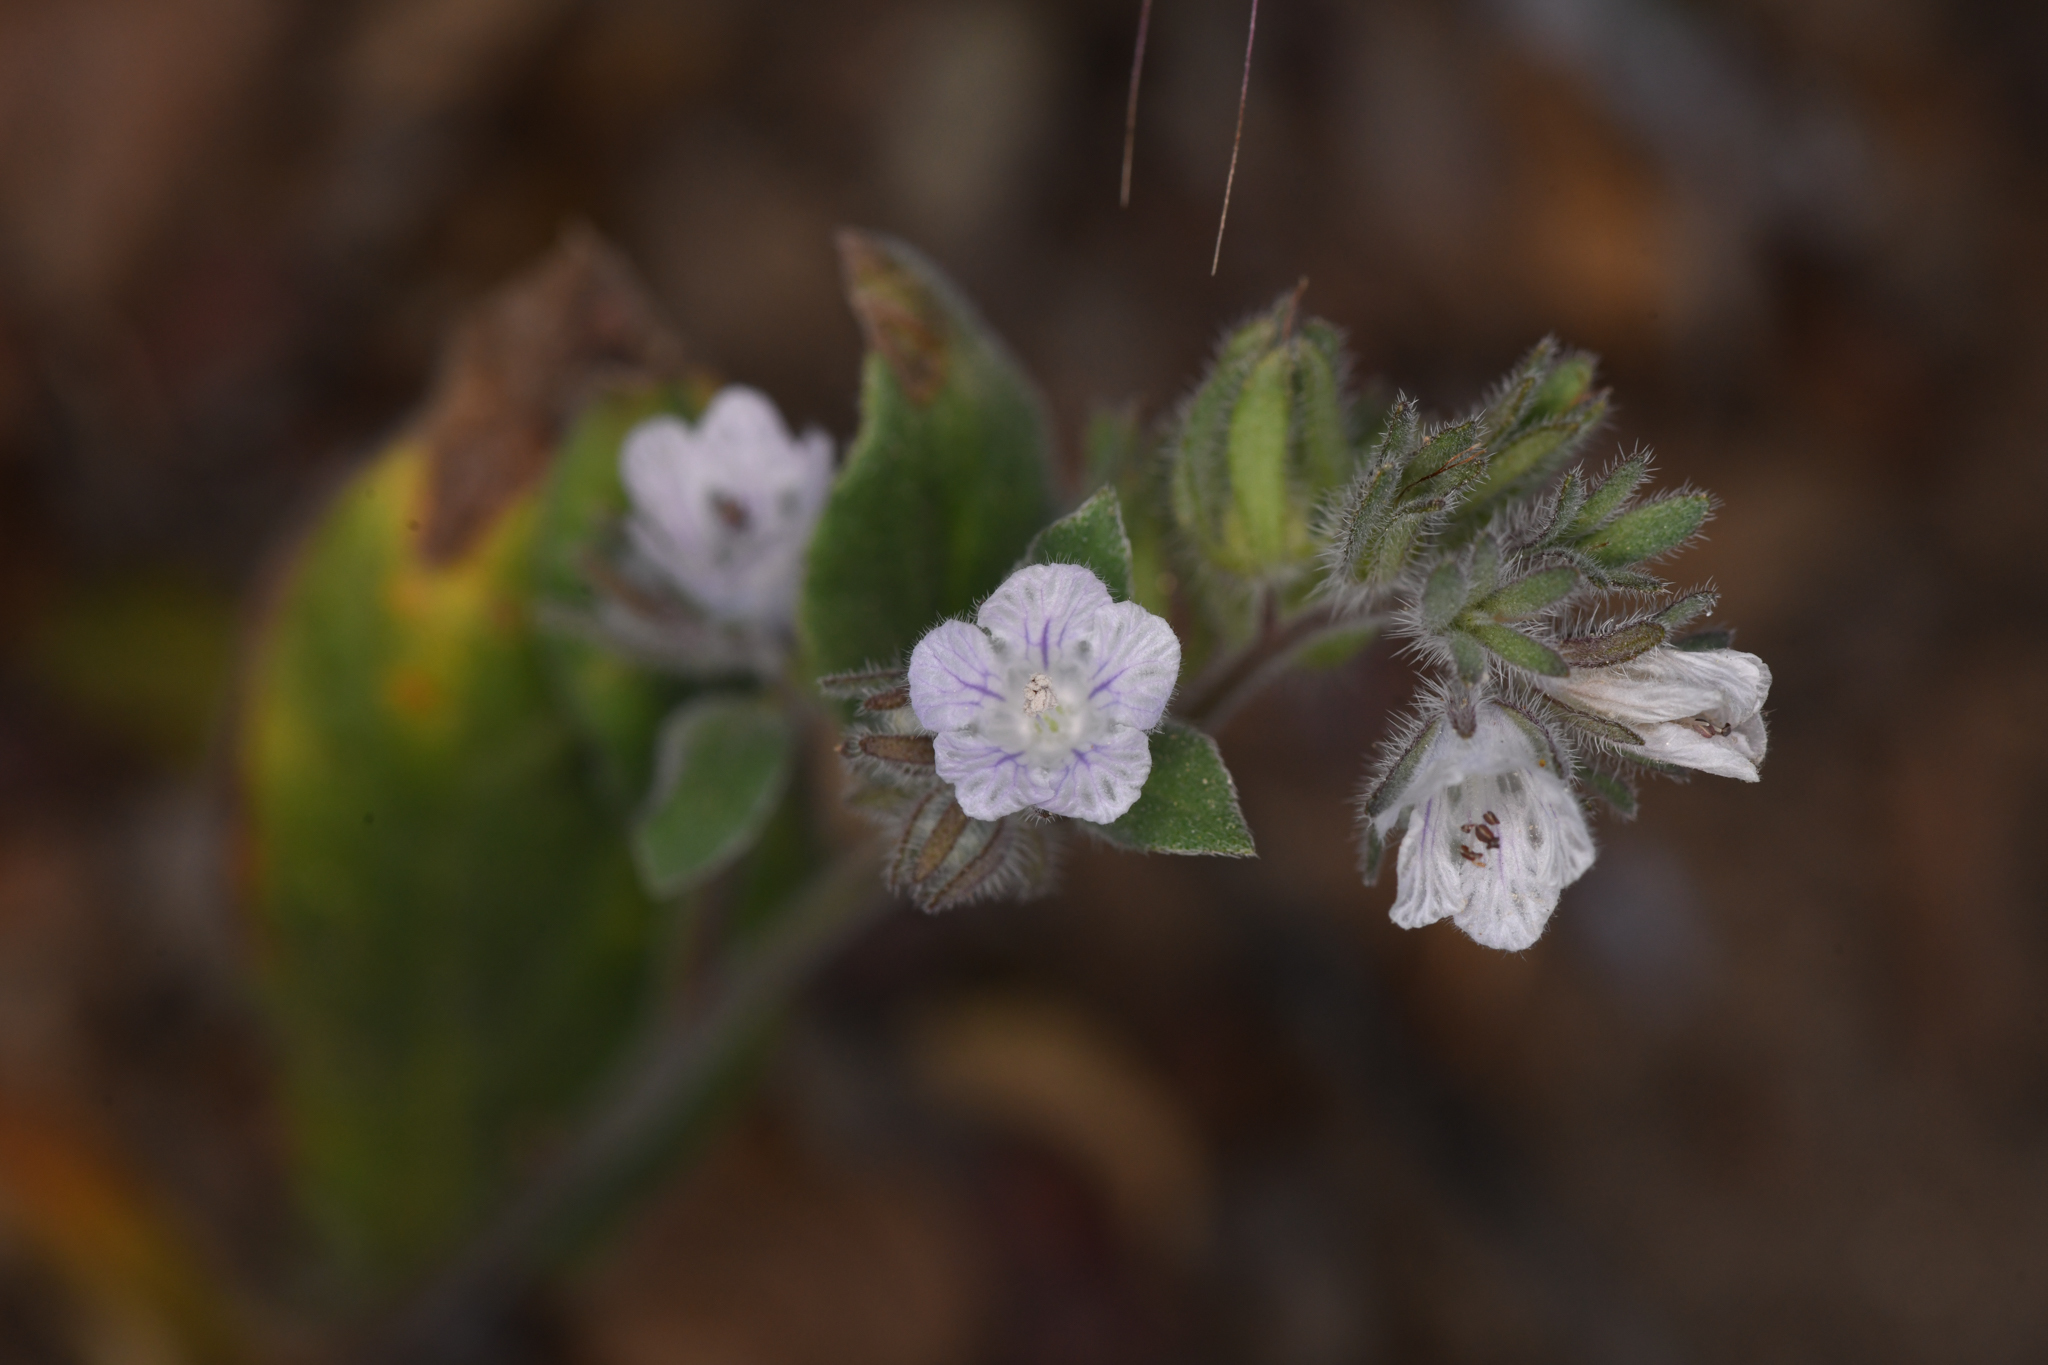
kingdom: Plantae
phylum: Tracheophyta
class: Magnoliopsida
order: Boraginales
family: Hydrophyllaceae
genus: Phacelia
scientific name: Phacelia congdonii
